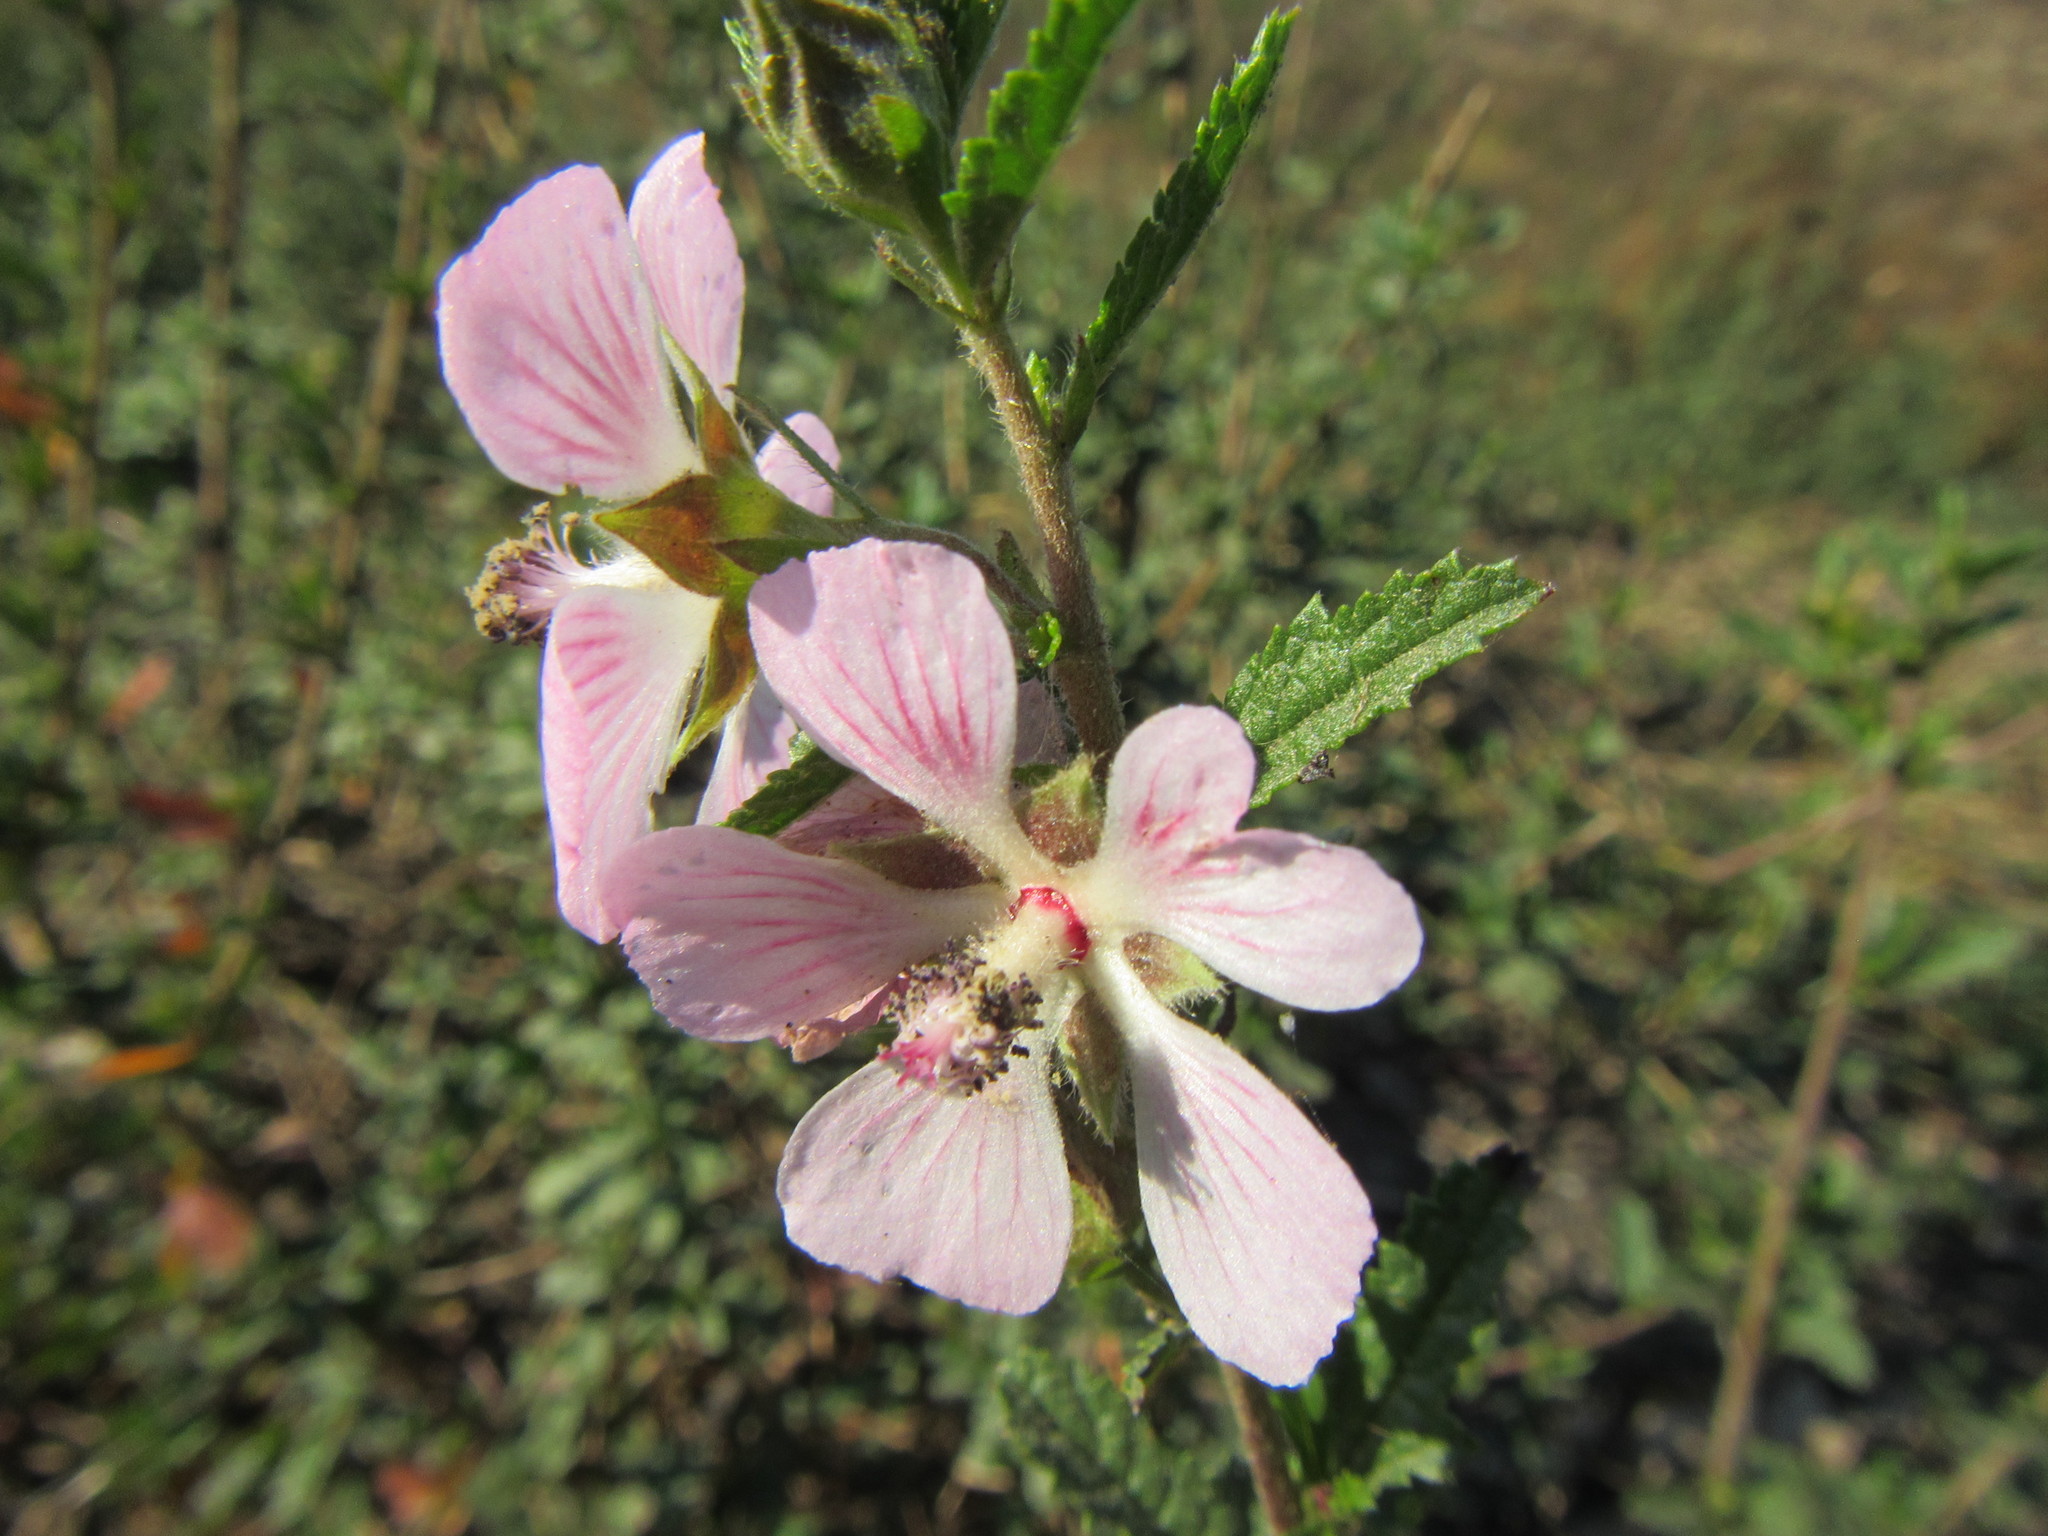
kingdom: Plantae
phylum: Tracheophyta
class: Magnoliopsida
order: Malvales
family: Malvaceae
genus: Anisodontea
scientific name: Anisodontea scabrosa
